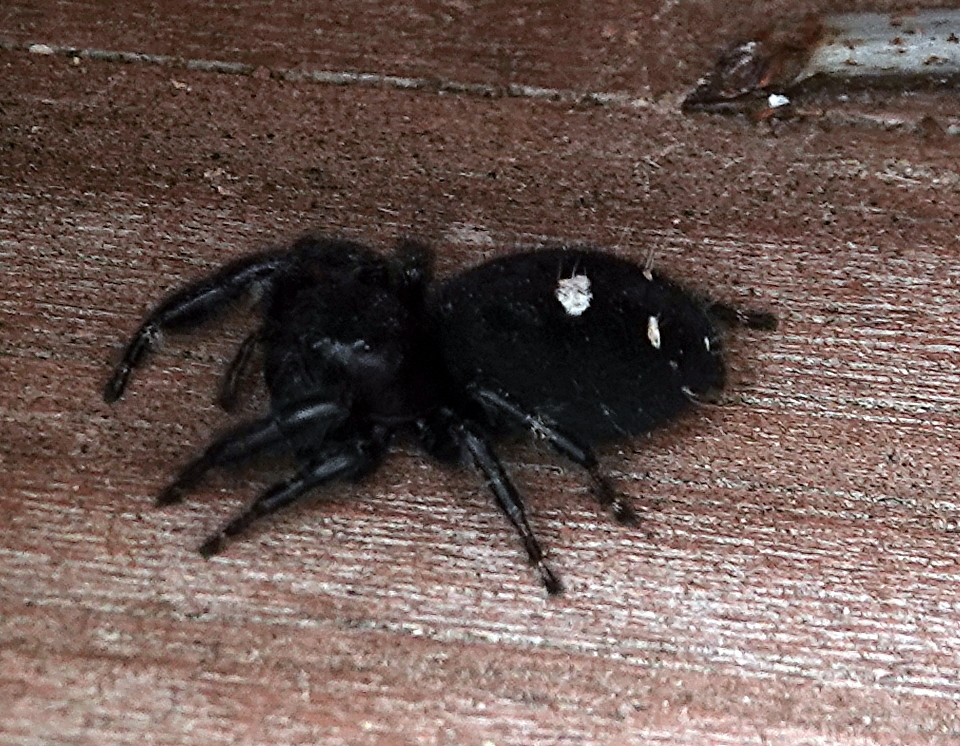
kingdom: Animalia
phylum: Arthropoda
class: Arachnida
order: Araneae
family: Salticidae
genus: Phidippus
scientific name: Phidippus audax
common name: Bold jumper
